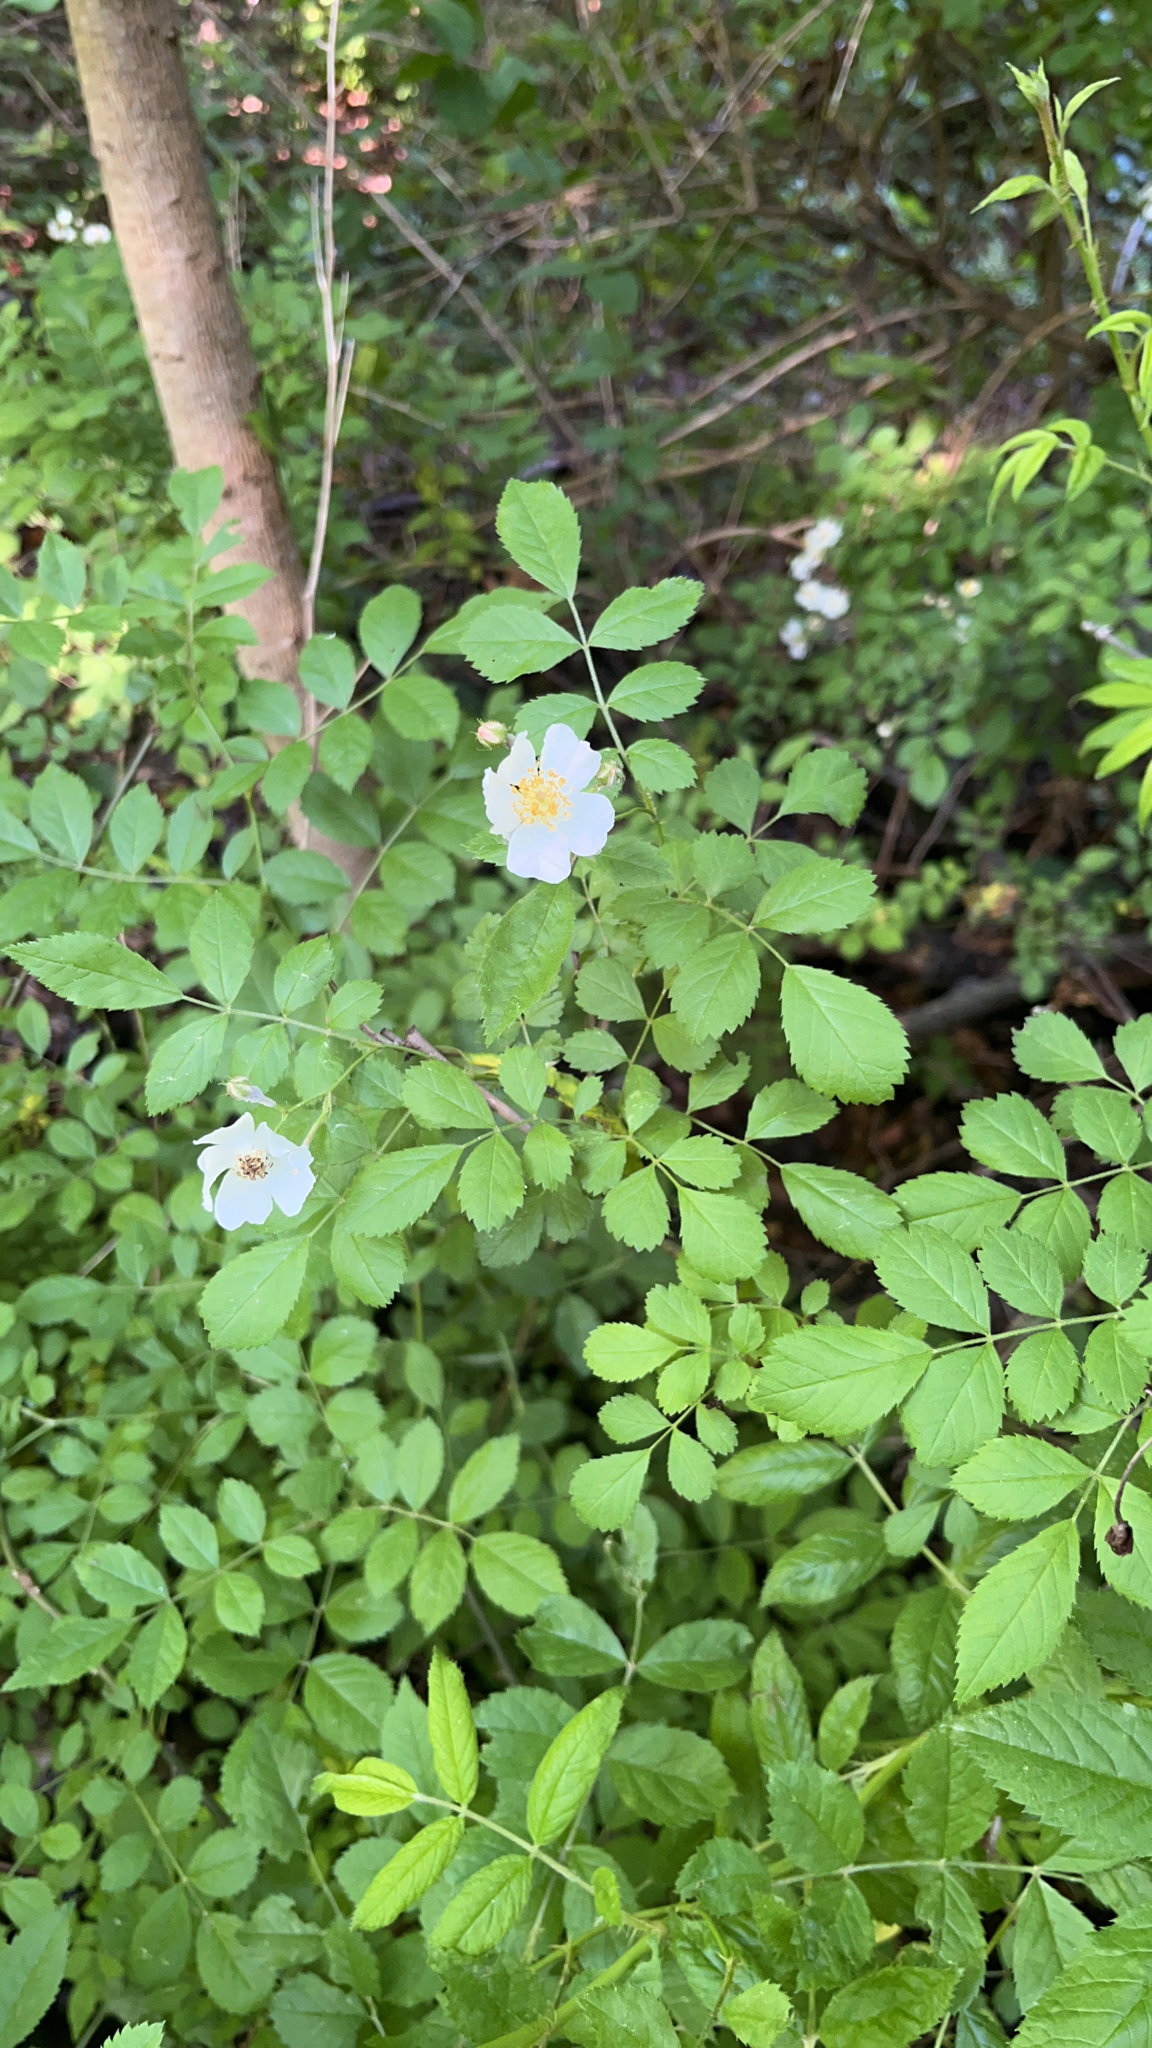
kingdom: Plantae
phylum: Tracheophyta
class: Magnoliopsida
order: Rosales
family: Rosaceae
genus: Rosa
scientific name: Rosa multiflora
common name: Multiflora rose
